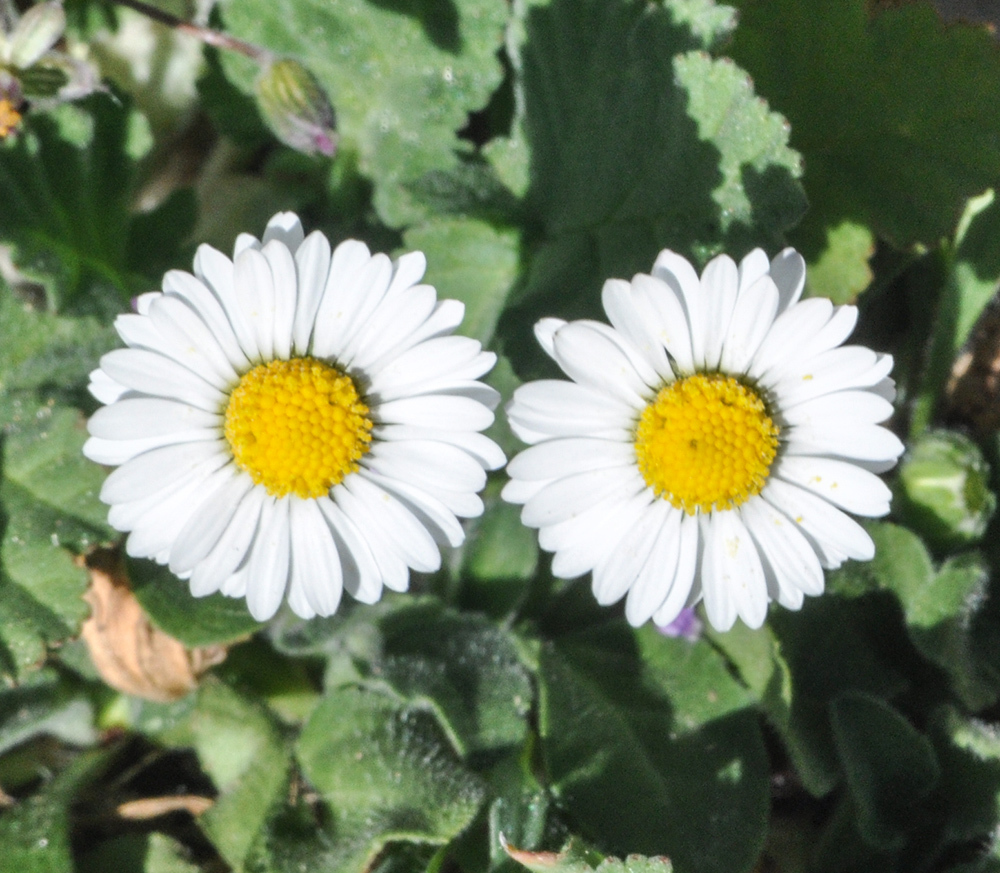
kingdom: Plantae
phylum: Tracheophyta
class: Magnoliopsida
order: Asterales
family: Asteraceae
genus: Bellis
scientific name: Bellis perennis
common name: Lawndaisy
